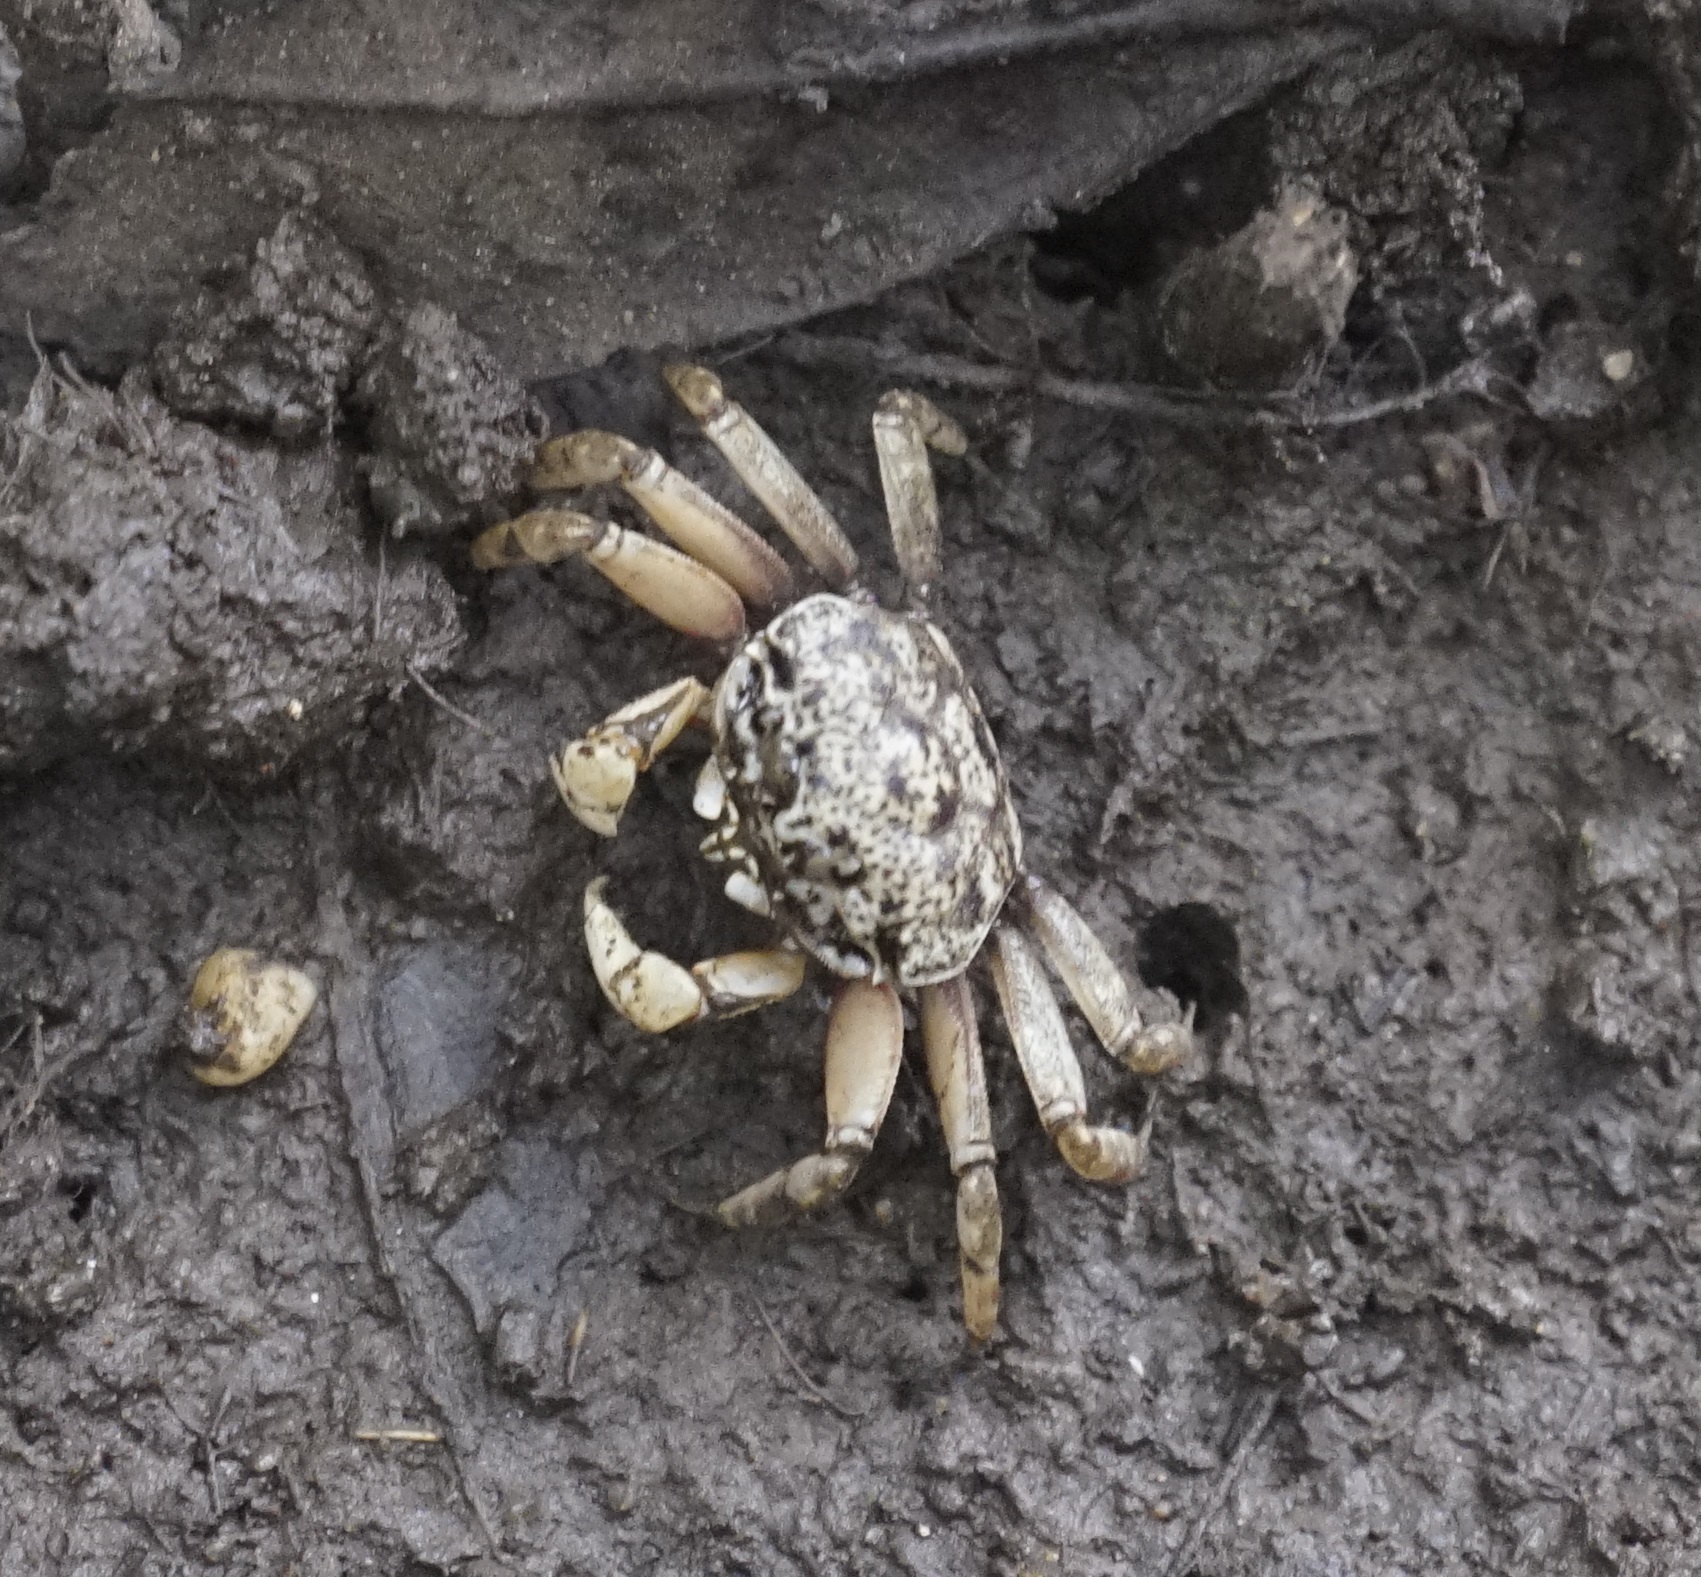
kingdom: Animalia
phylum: Arthropoda
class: Malacostraca
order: Decapoda
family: Heloeciidae
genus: Heloecius
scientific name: Heloecius cordiformis
